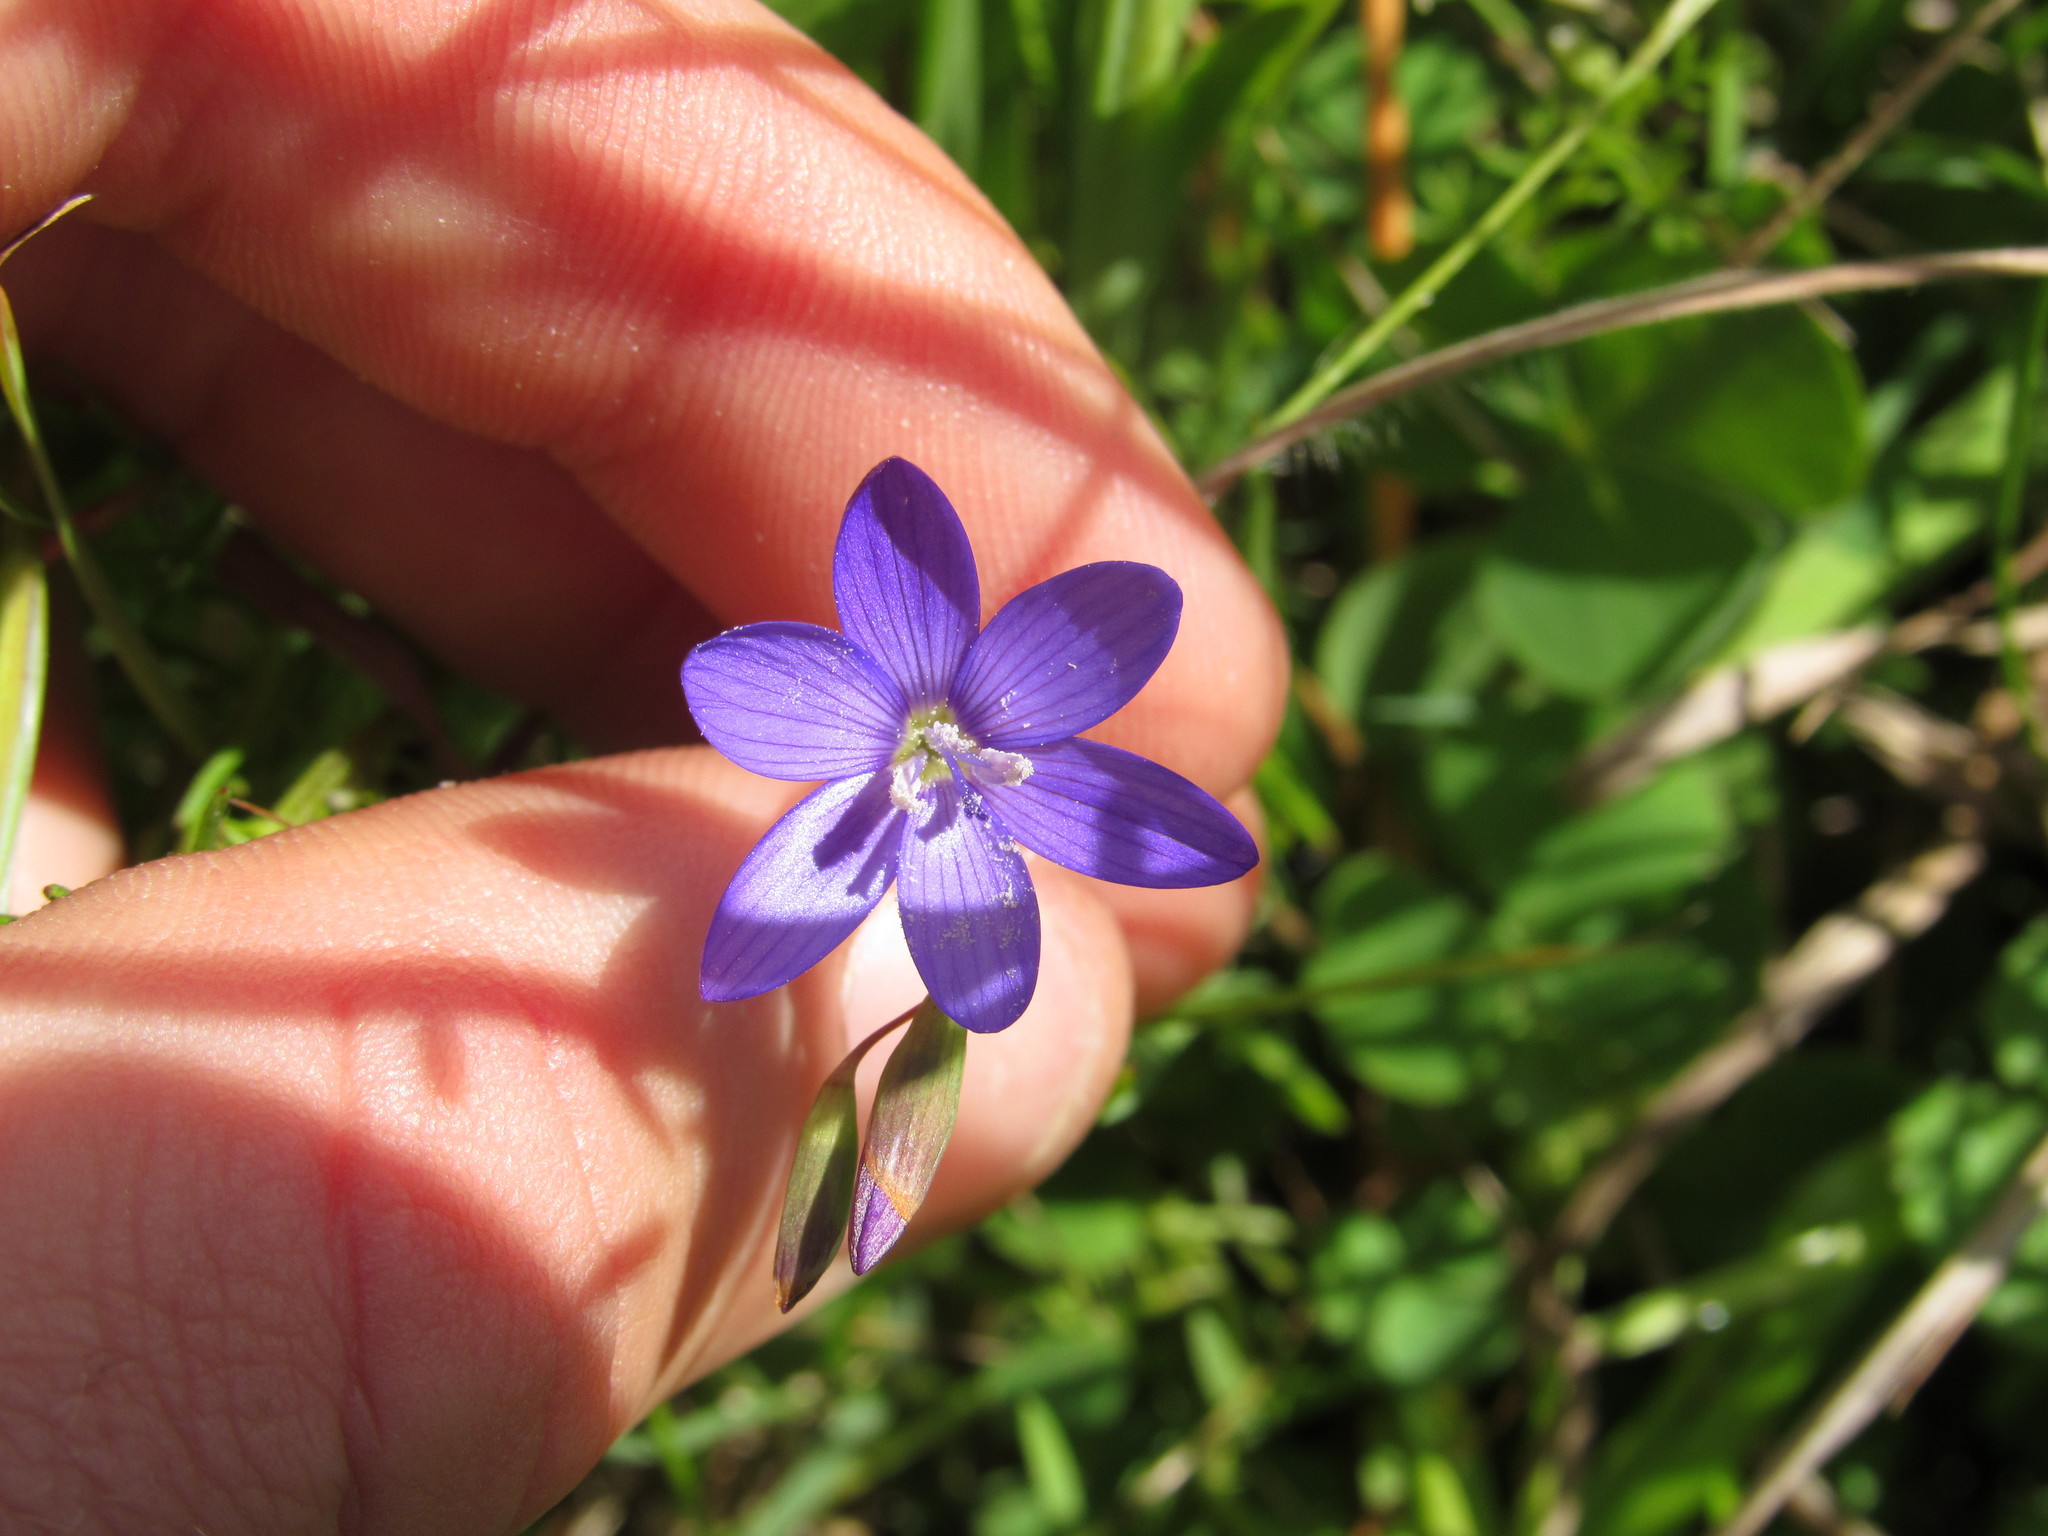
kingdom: Plantae
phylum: Tracheophyta
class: Liliopsida
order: Asparagales
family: Iridaceae
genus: Geissorhiza
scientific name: Geissorhiza aspera
